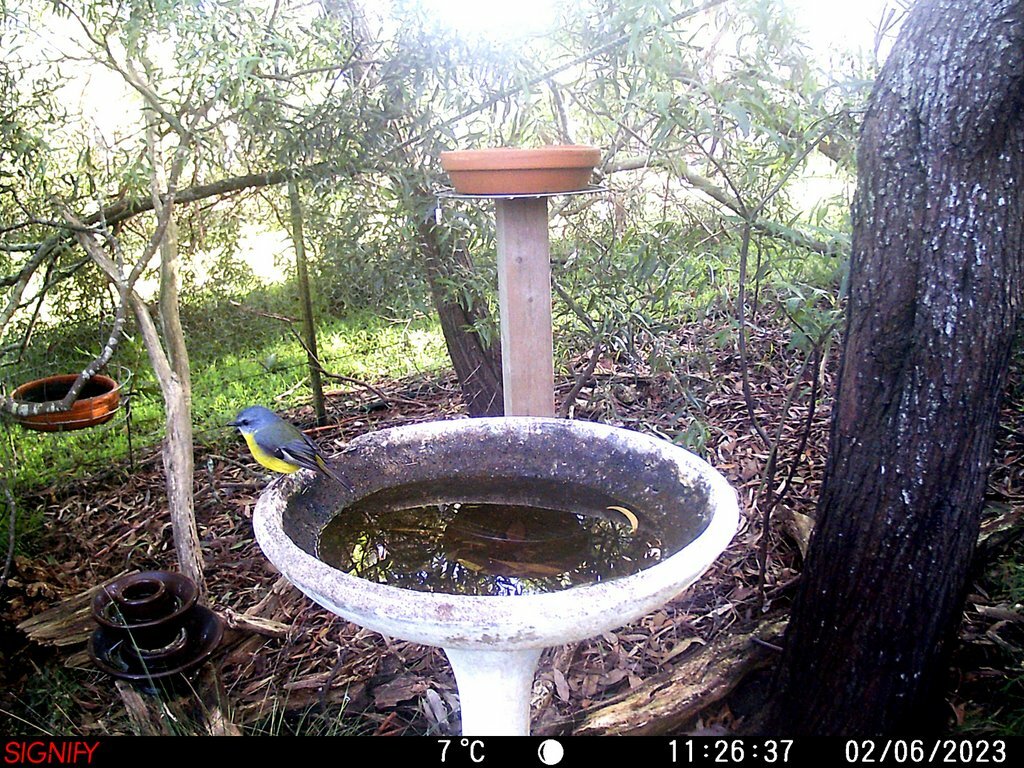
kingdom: Animalia
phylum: Chordata
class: Aves
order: Passeriformes
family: Petroicidae
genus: Eopsaltria
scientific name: Eopsaltria australis
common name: Eastern yellow robin
